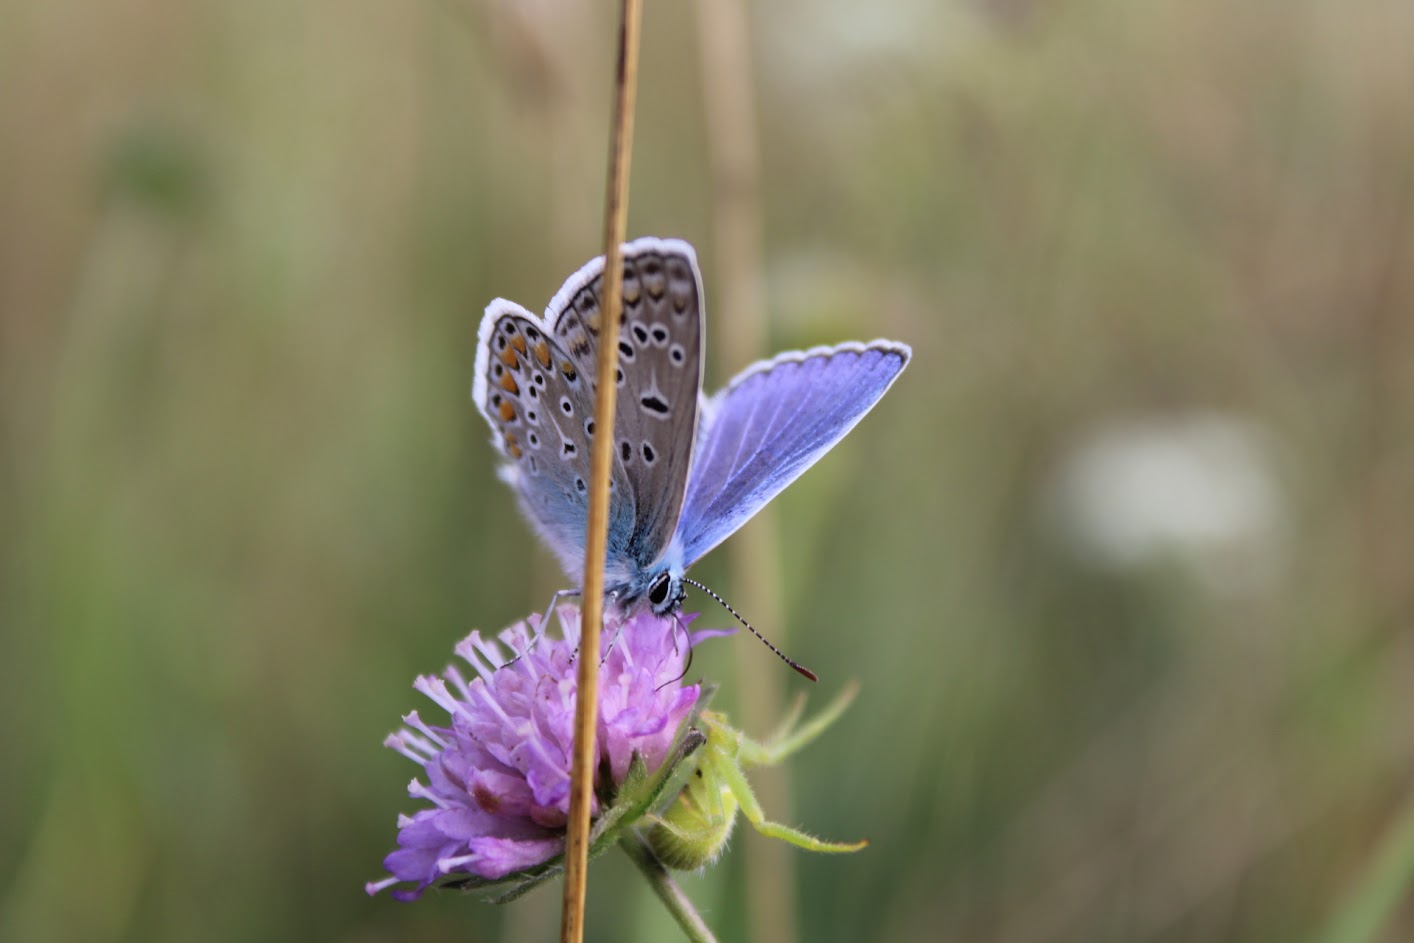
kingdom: Animalia
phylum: Arthropoda
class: Insecta
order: Lepidoptera
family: Lycaenidae
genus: Polyommatus
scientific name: Polyommatus icarus
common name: Common blue
